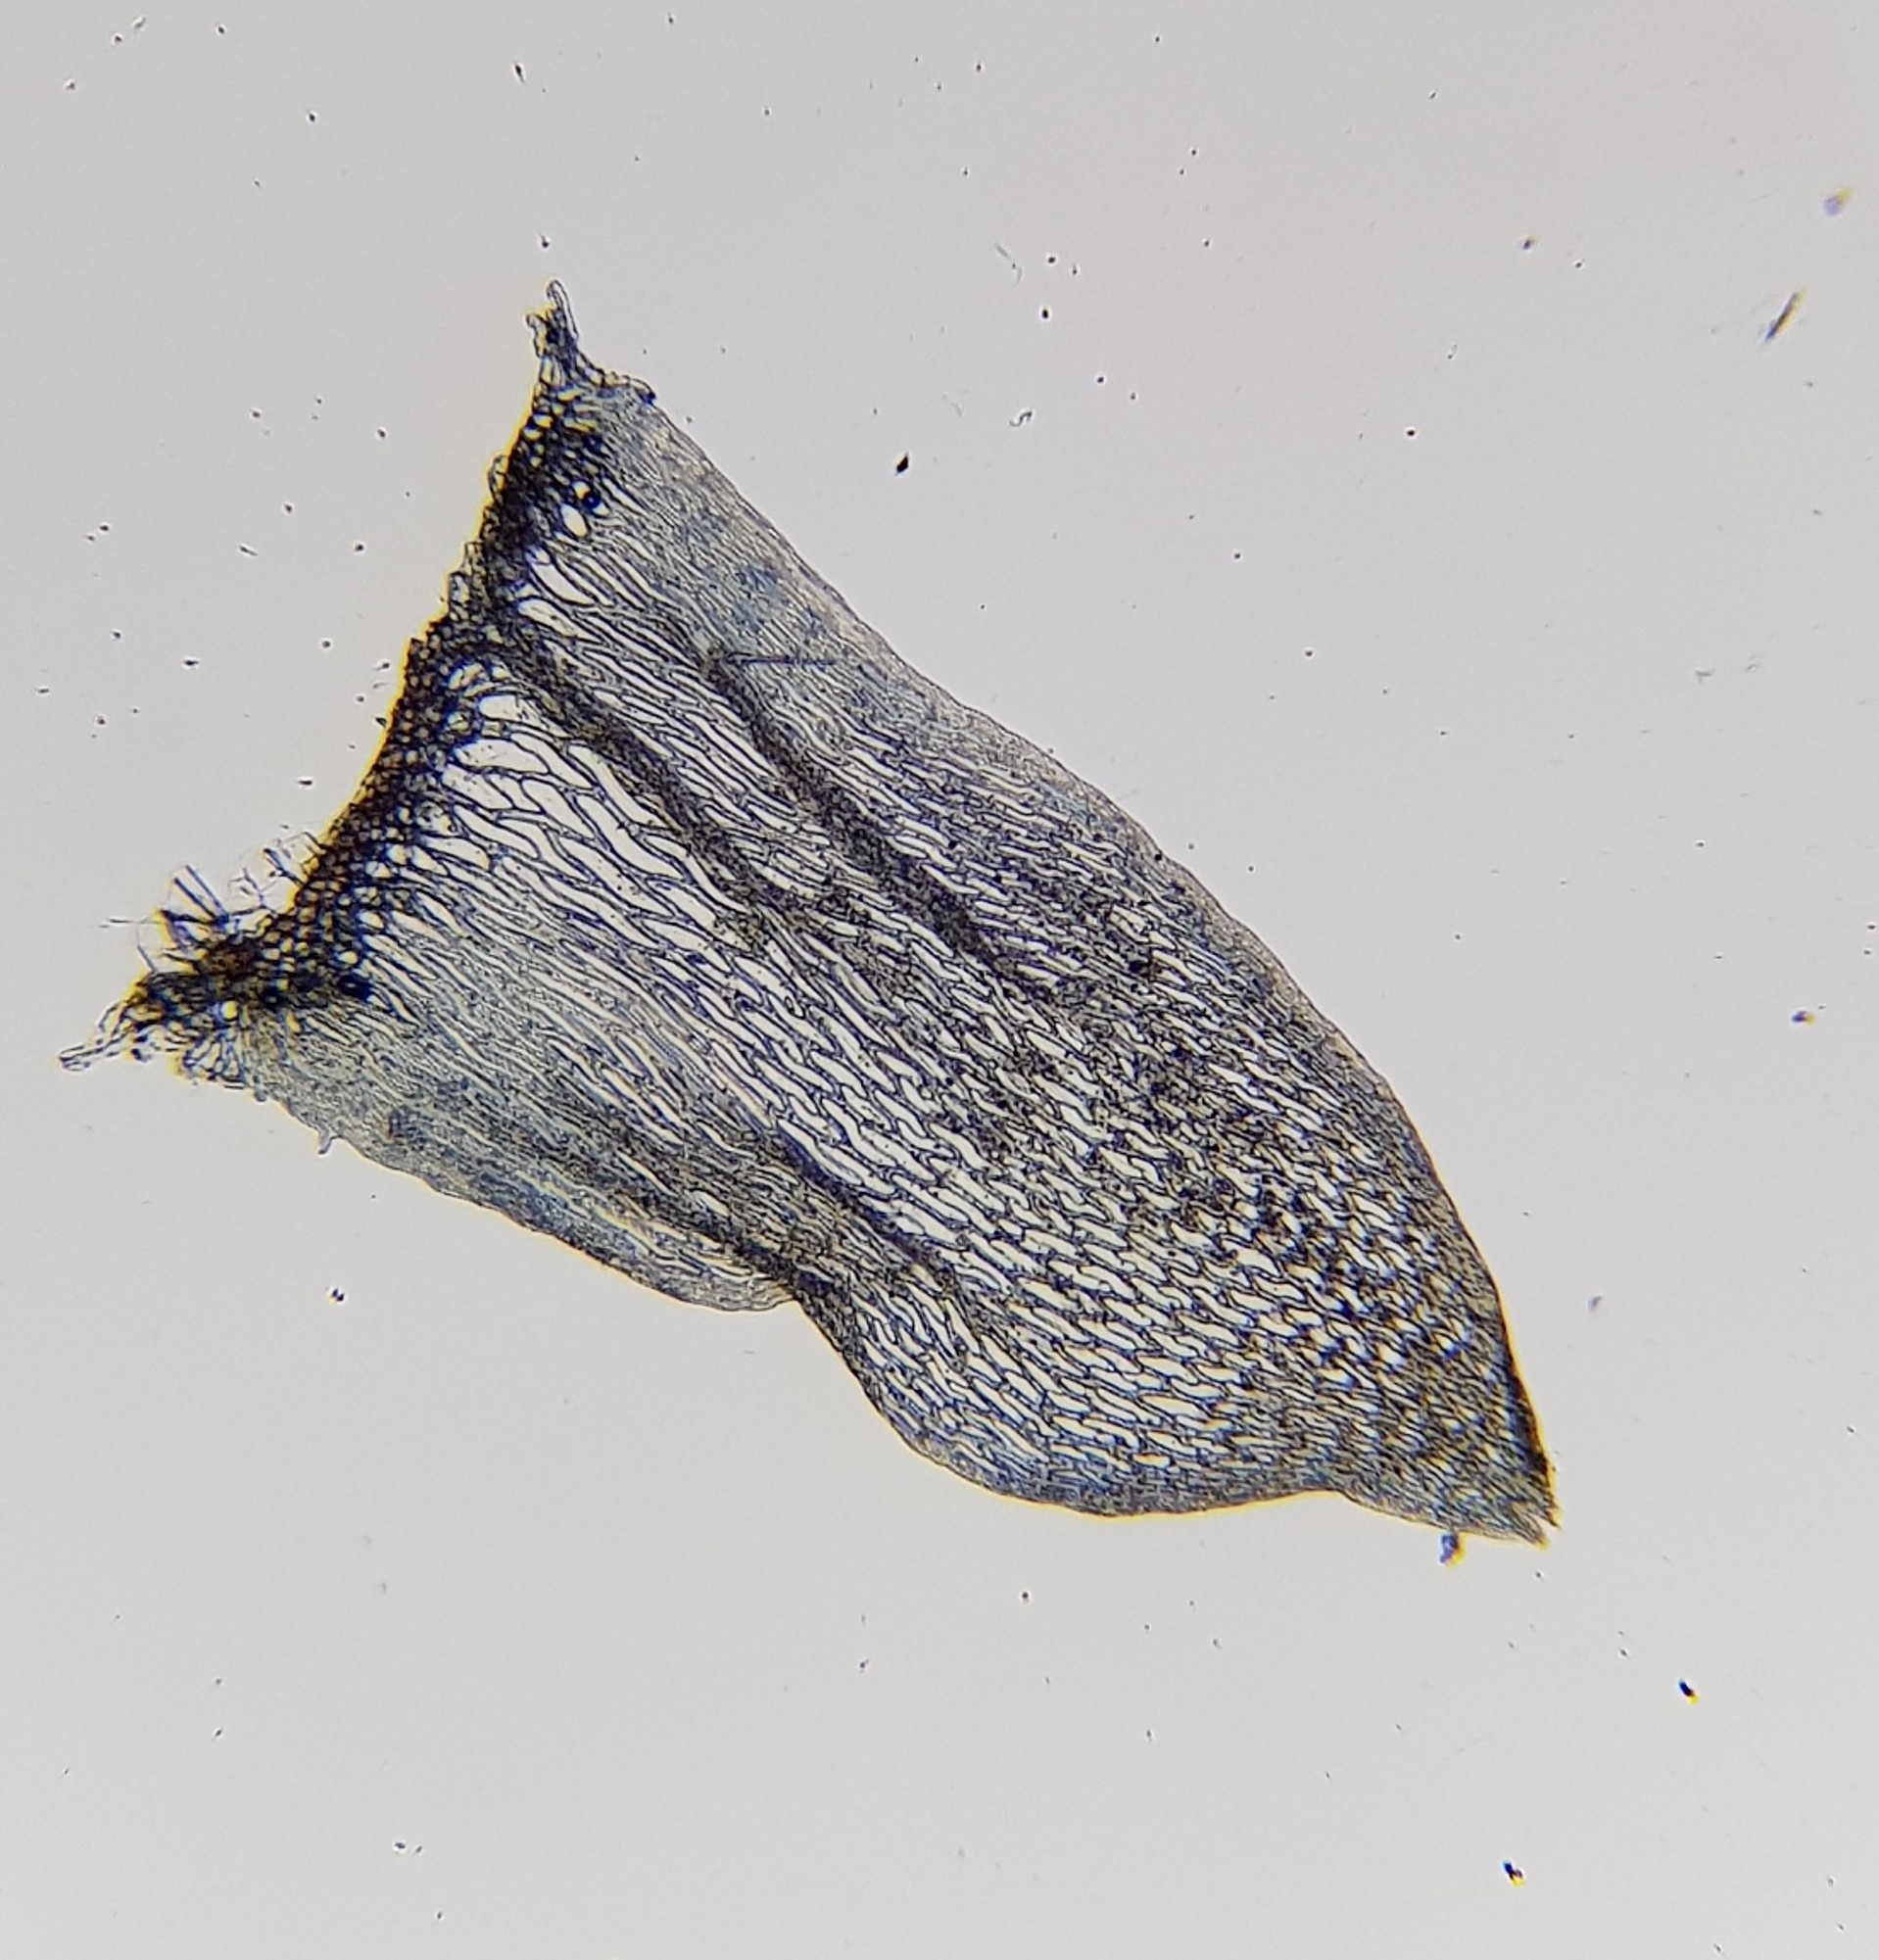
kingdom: Plantae
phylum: Bryophyta
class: Sphagnopsida
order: Sphagnales
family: Sphagnaceae
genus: Sphagnum
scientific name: Sphagnum subnitens
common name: Lustrous bog-moss
